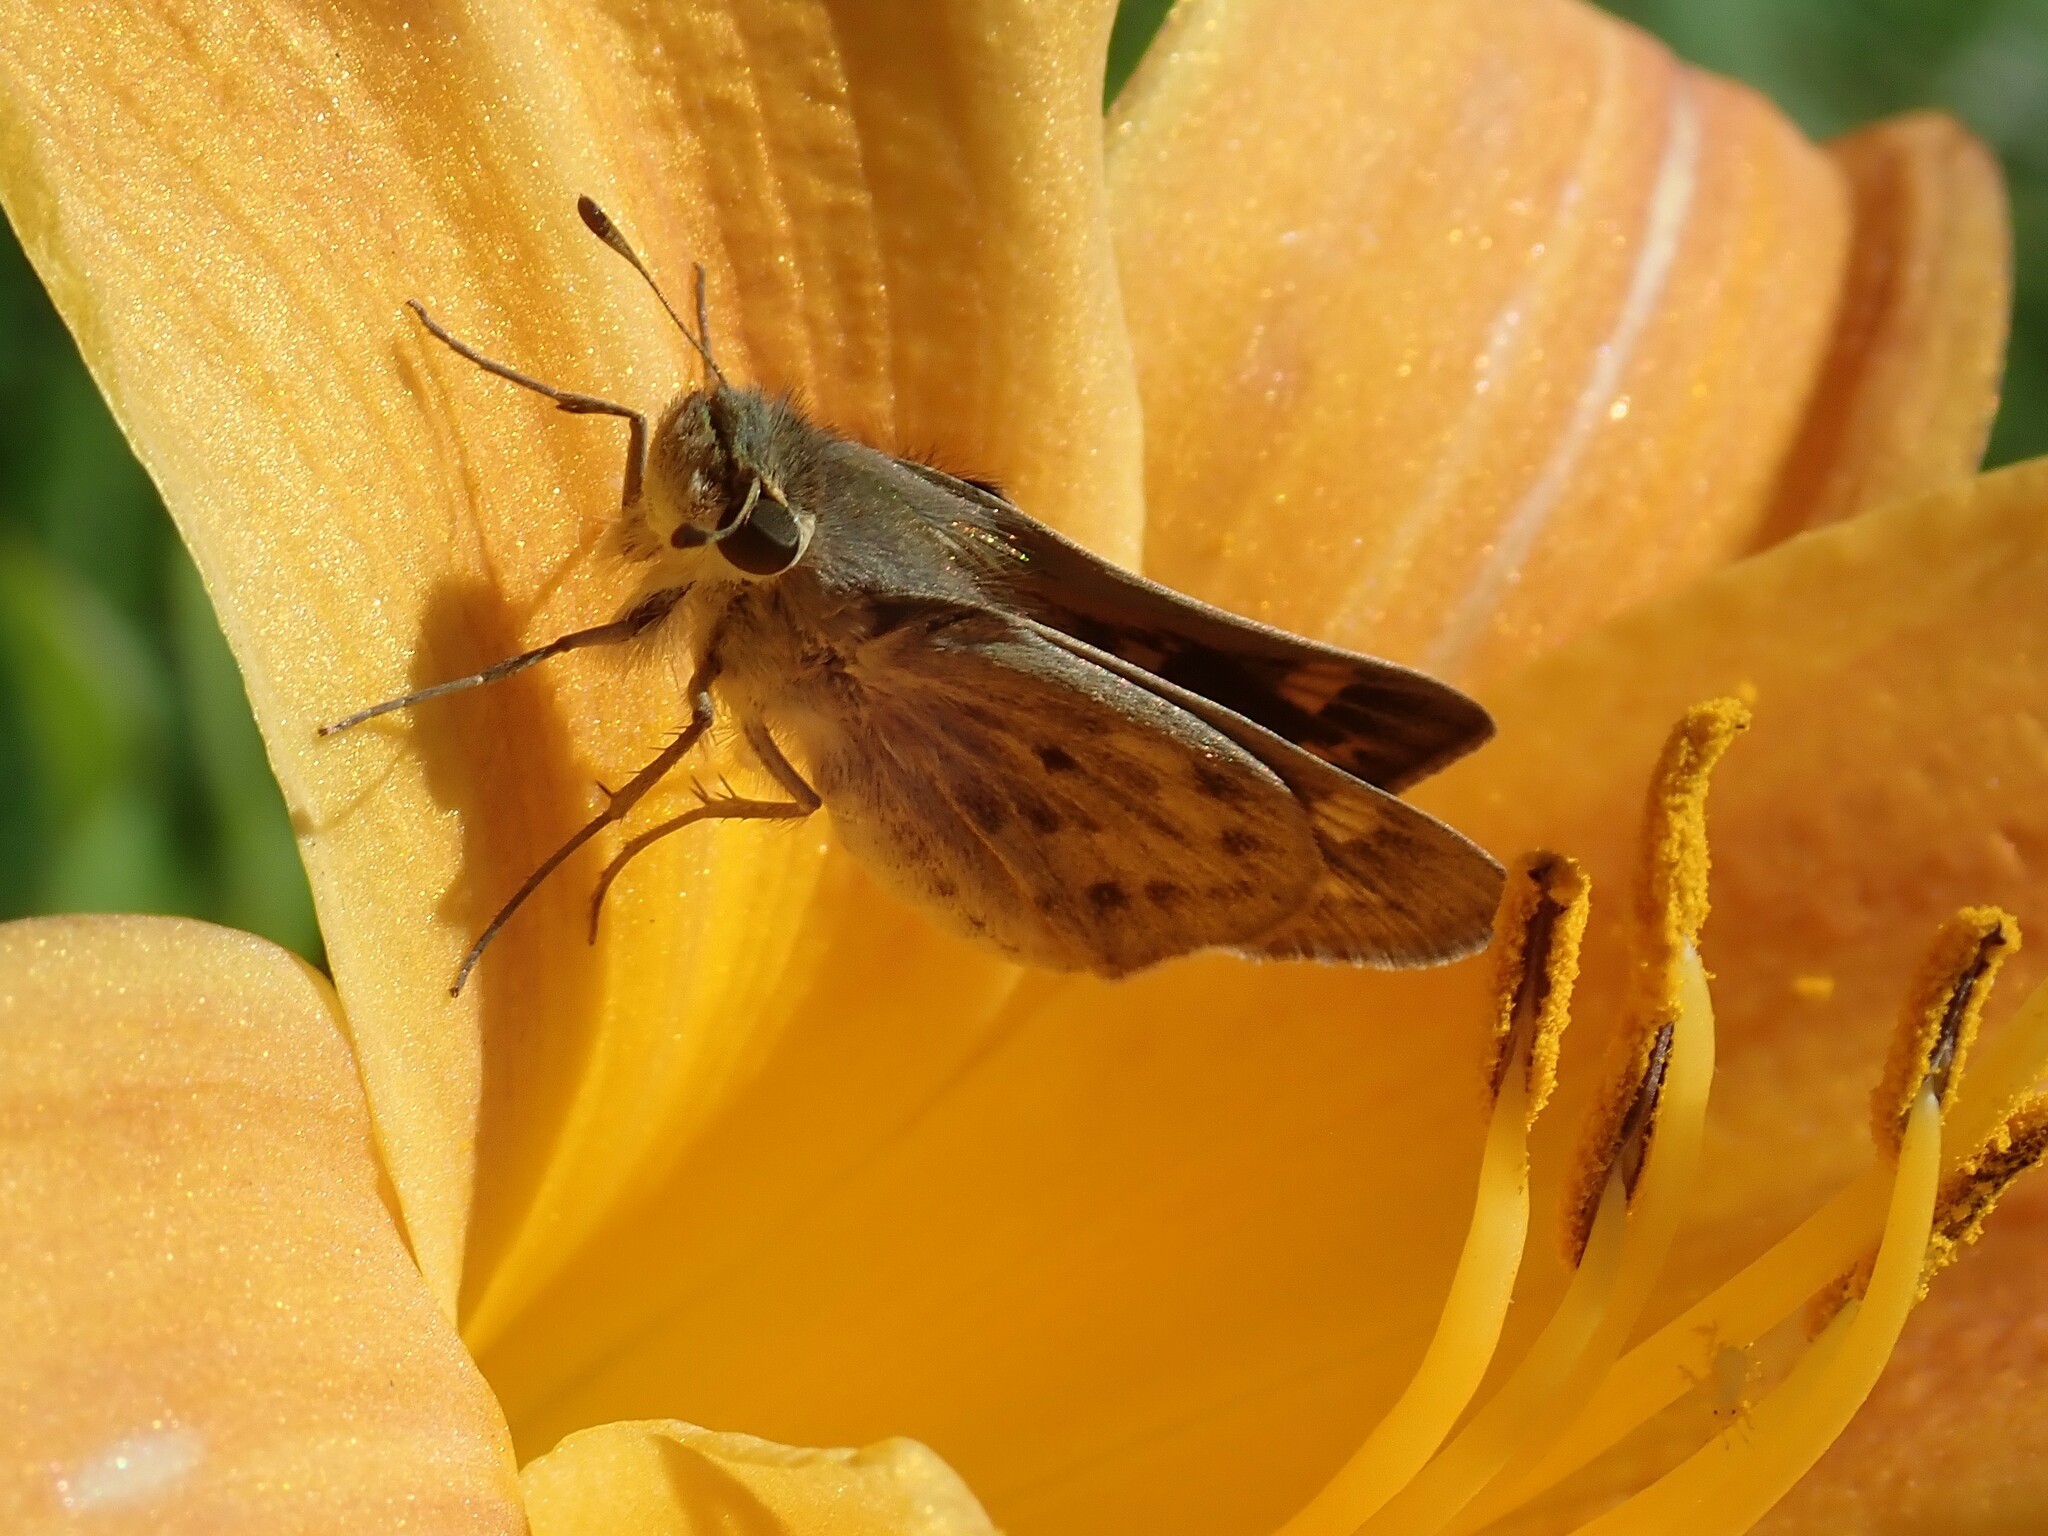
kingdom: Animalia
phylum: Arthropoda
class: Insecta
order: Lepidoptera
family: Hesperiidae
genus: Hylephila
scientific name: Hylephila phyleus
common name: Fiery skipper
